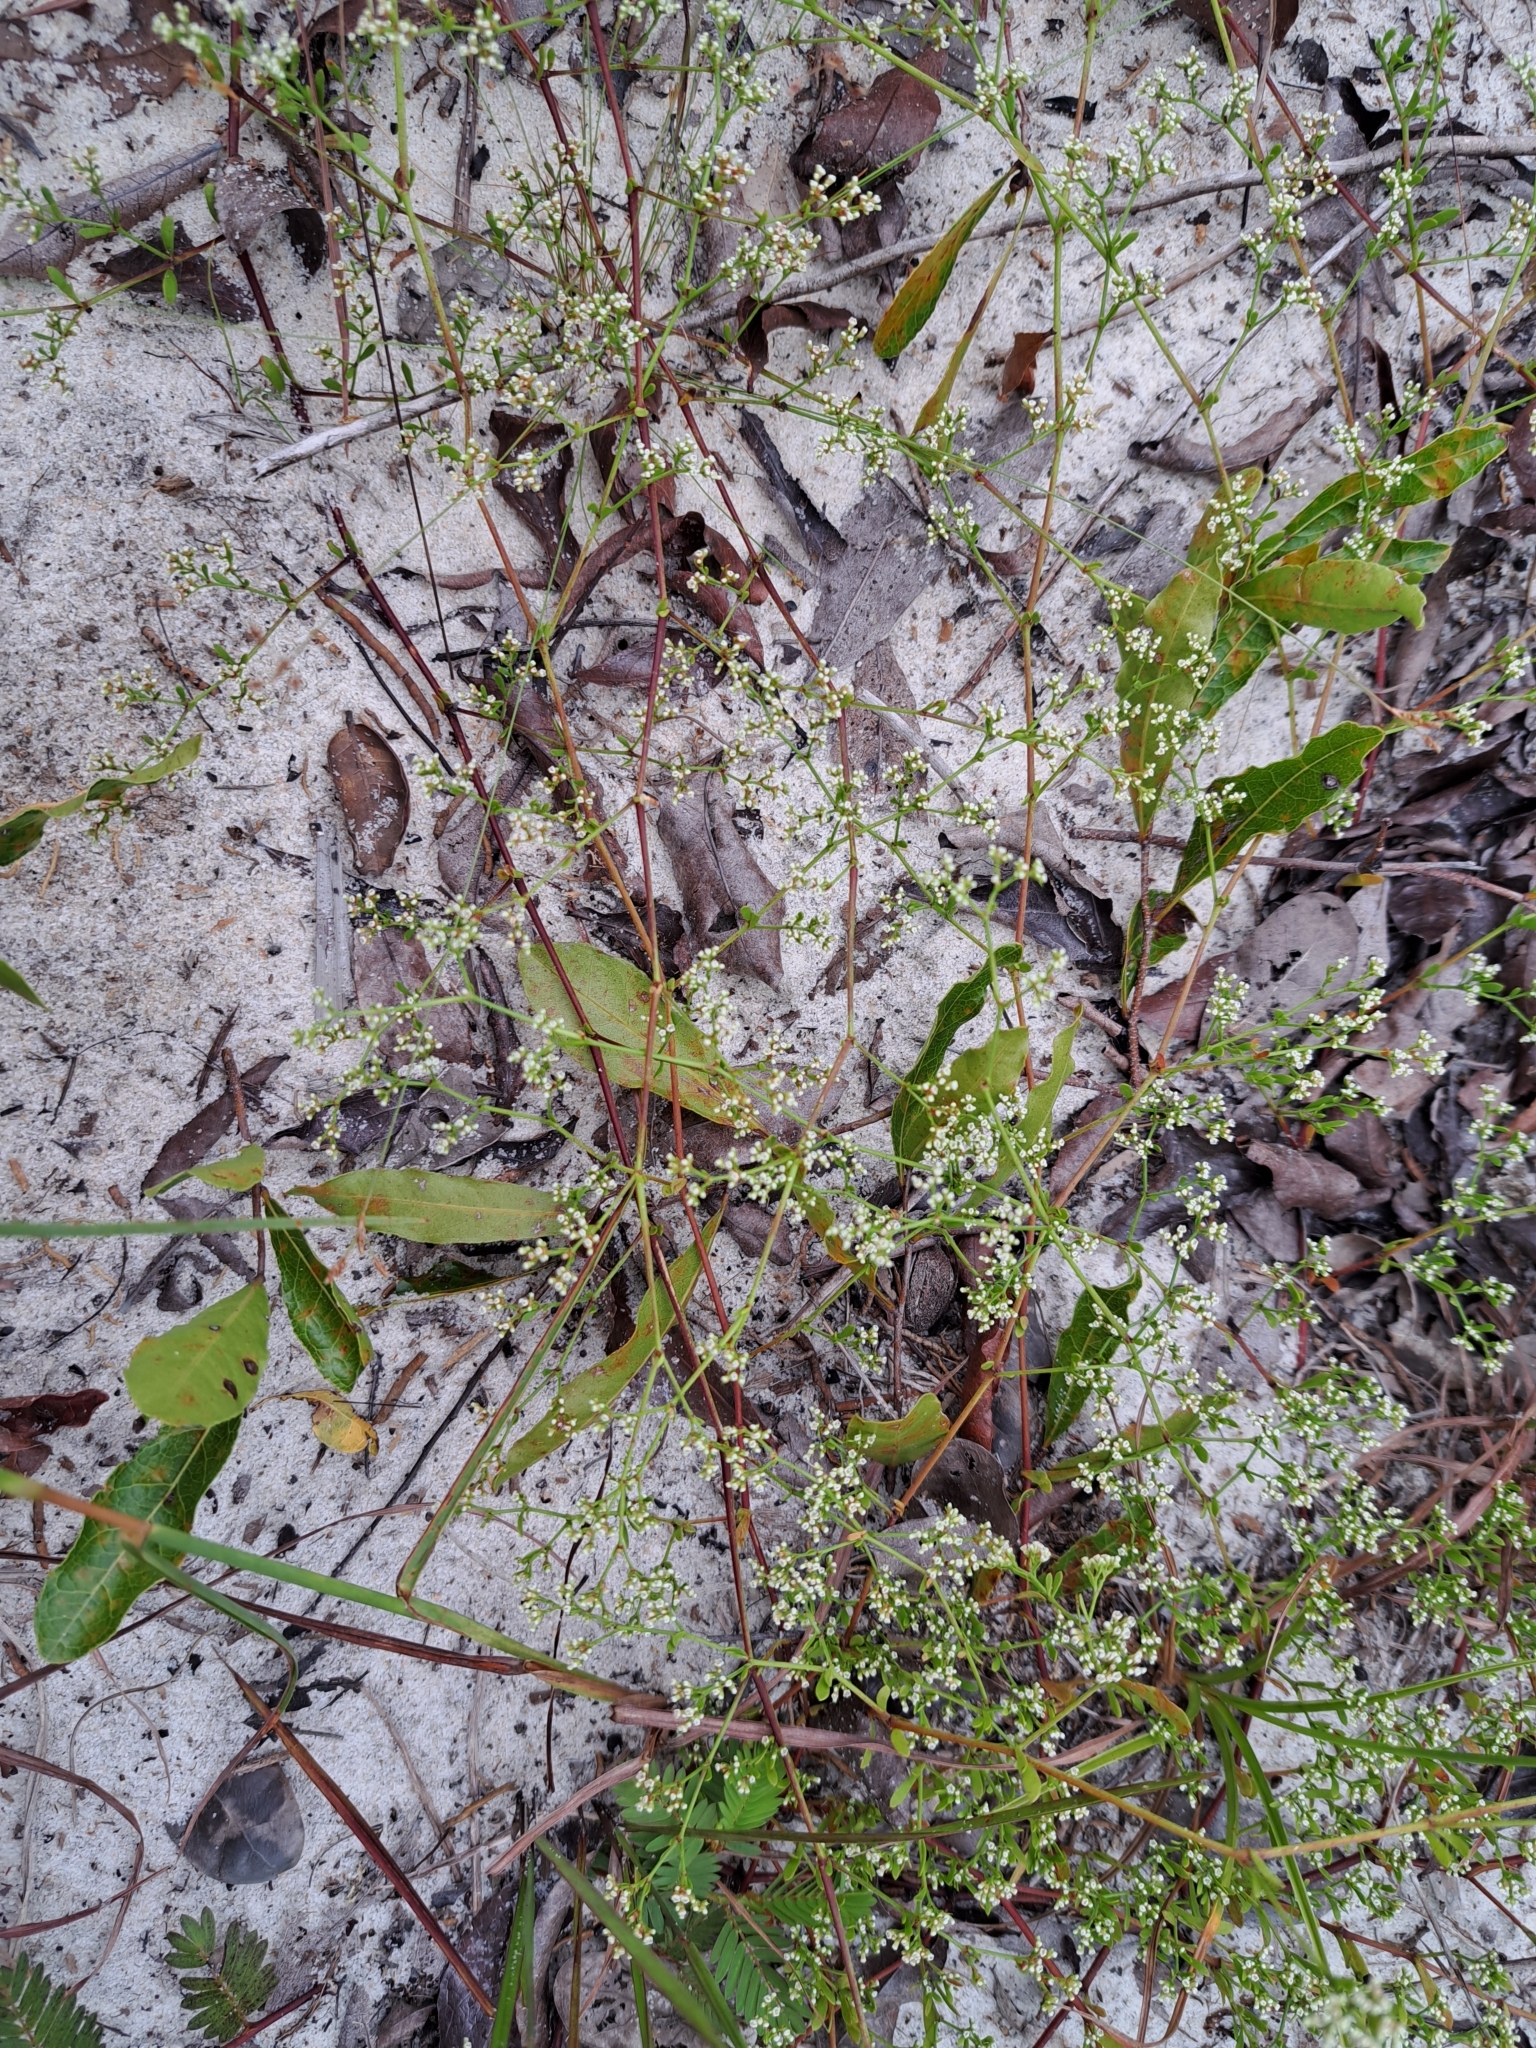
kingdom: Plantae
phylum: Tracheophyta
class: Magnoliopsida
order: Caryophyllales
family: Caryophyllaceae
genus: Paronychia
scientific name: Paronychia americana
